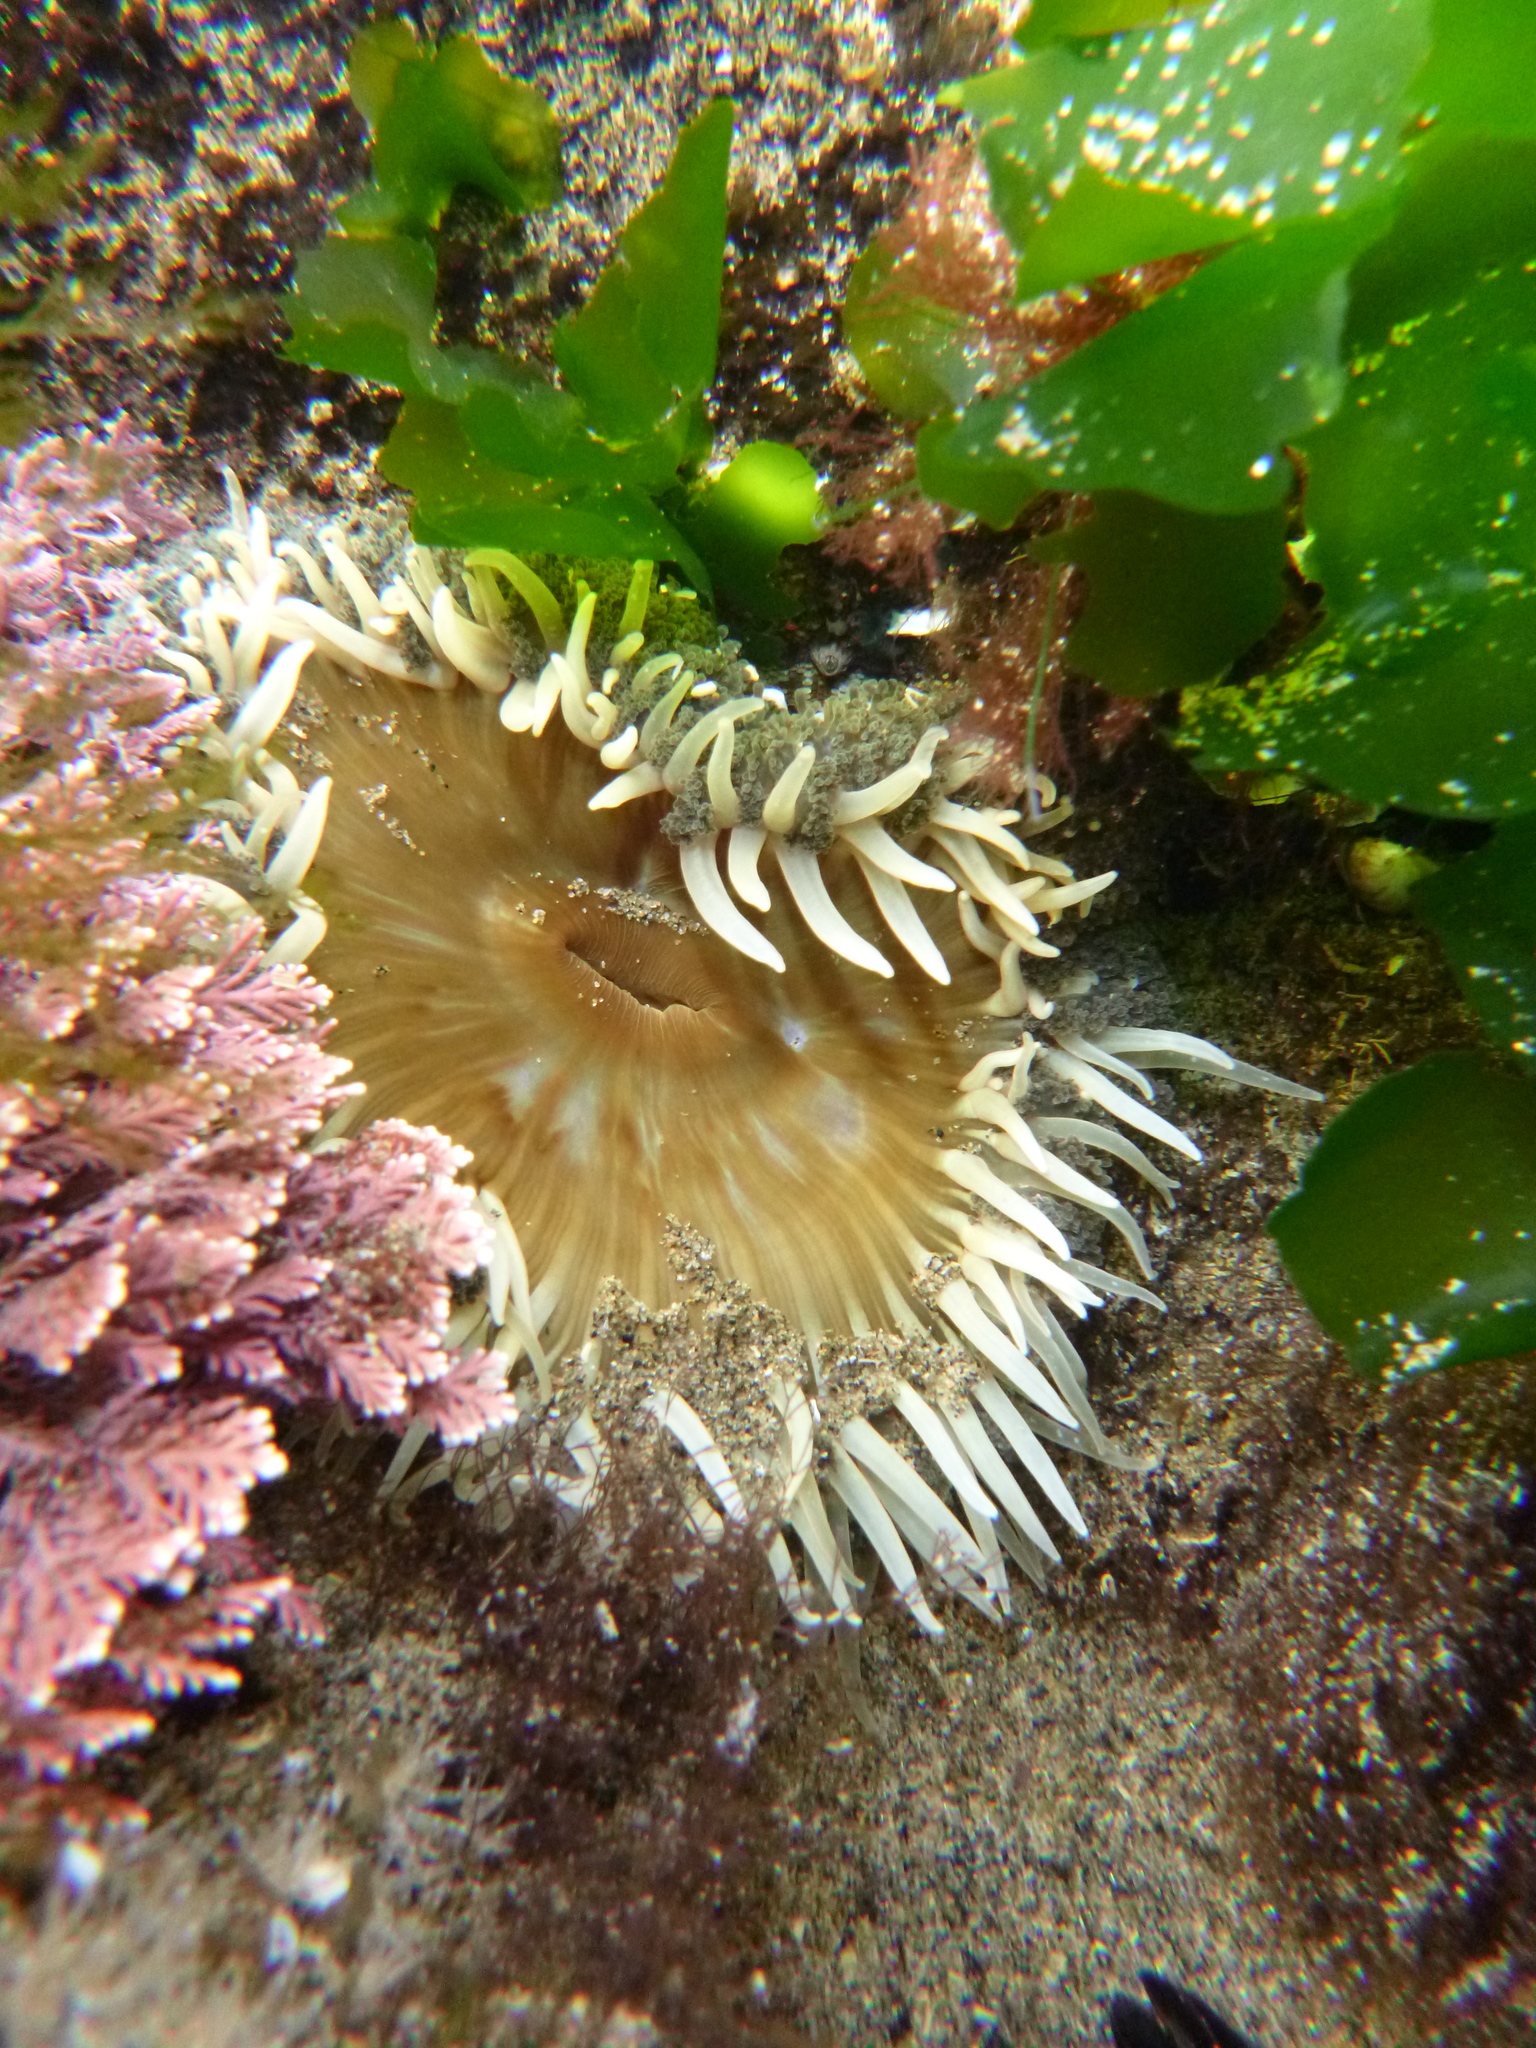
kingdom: Animalia
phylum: Cnidaria
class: Anthozoa
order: Actiniaria
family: Actiniidae
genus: Oulactis
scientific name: Oulactis magna
